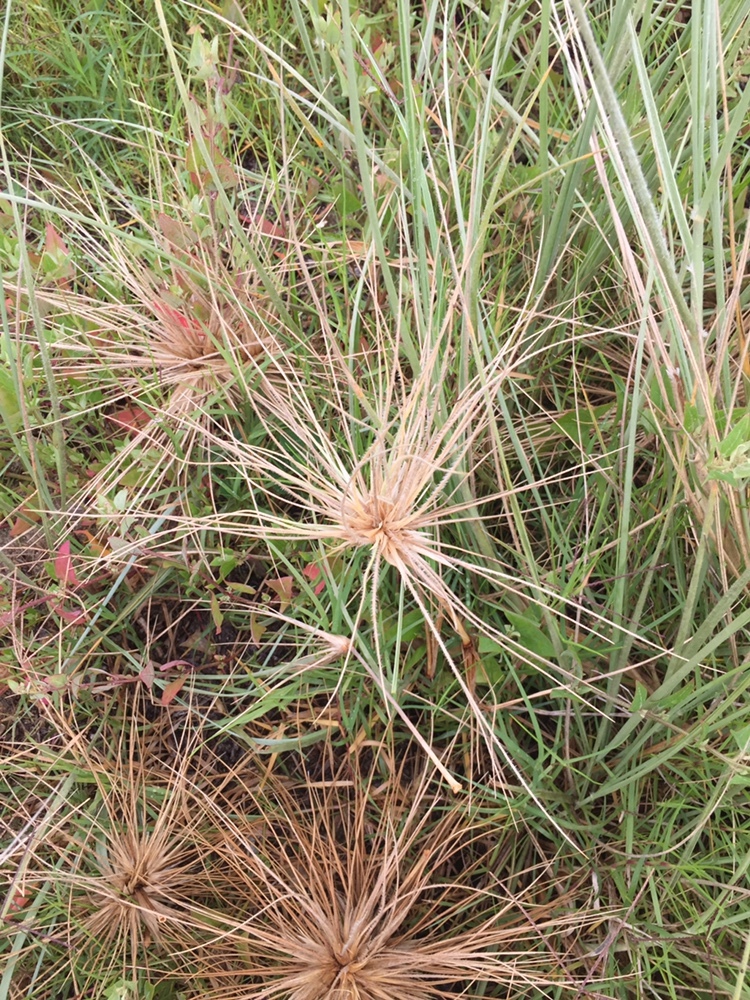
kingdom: Plantae
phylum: Tracheophyta
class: Liliopsida
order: Poales
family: Poaceae
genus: Spinifex
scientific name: Spinifex sericeus
